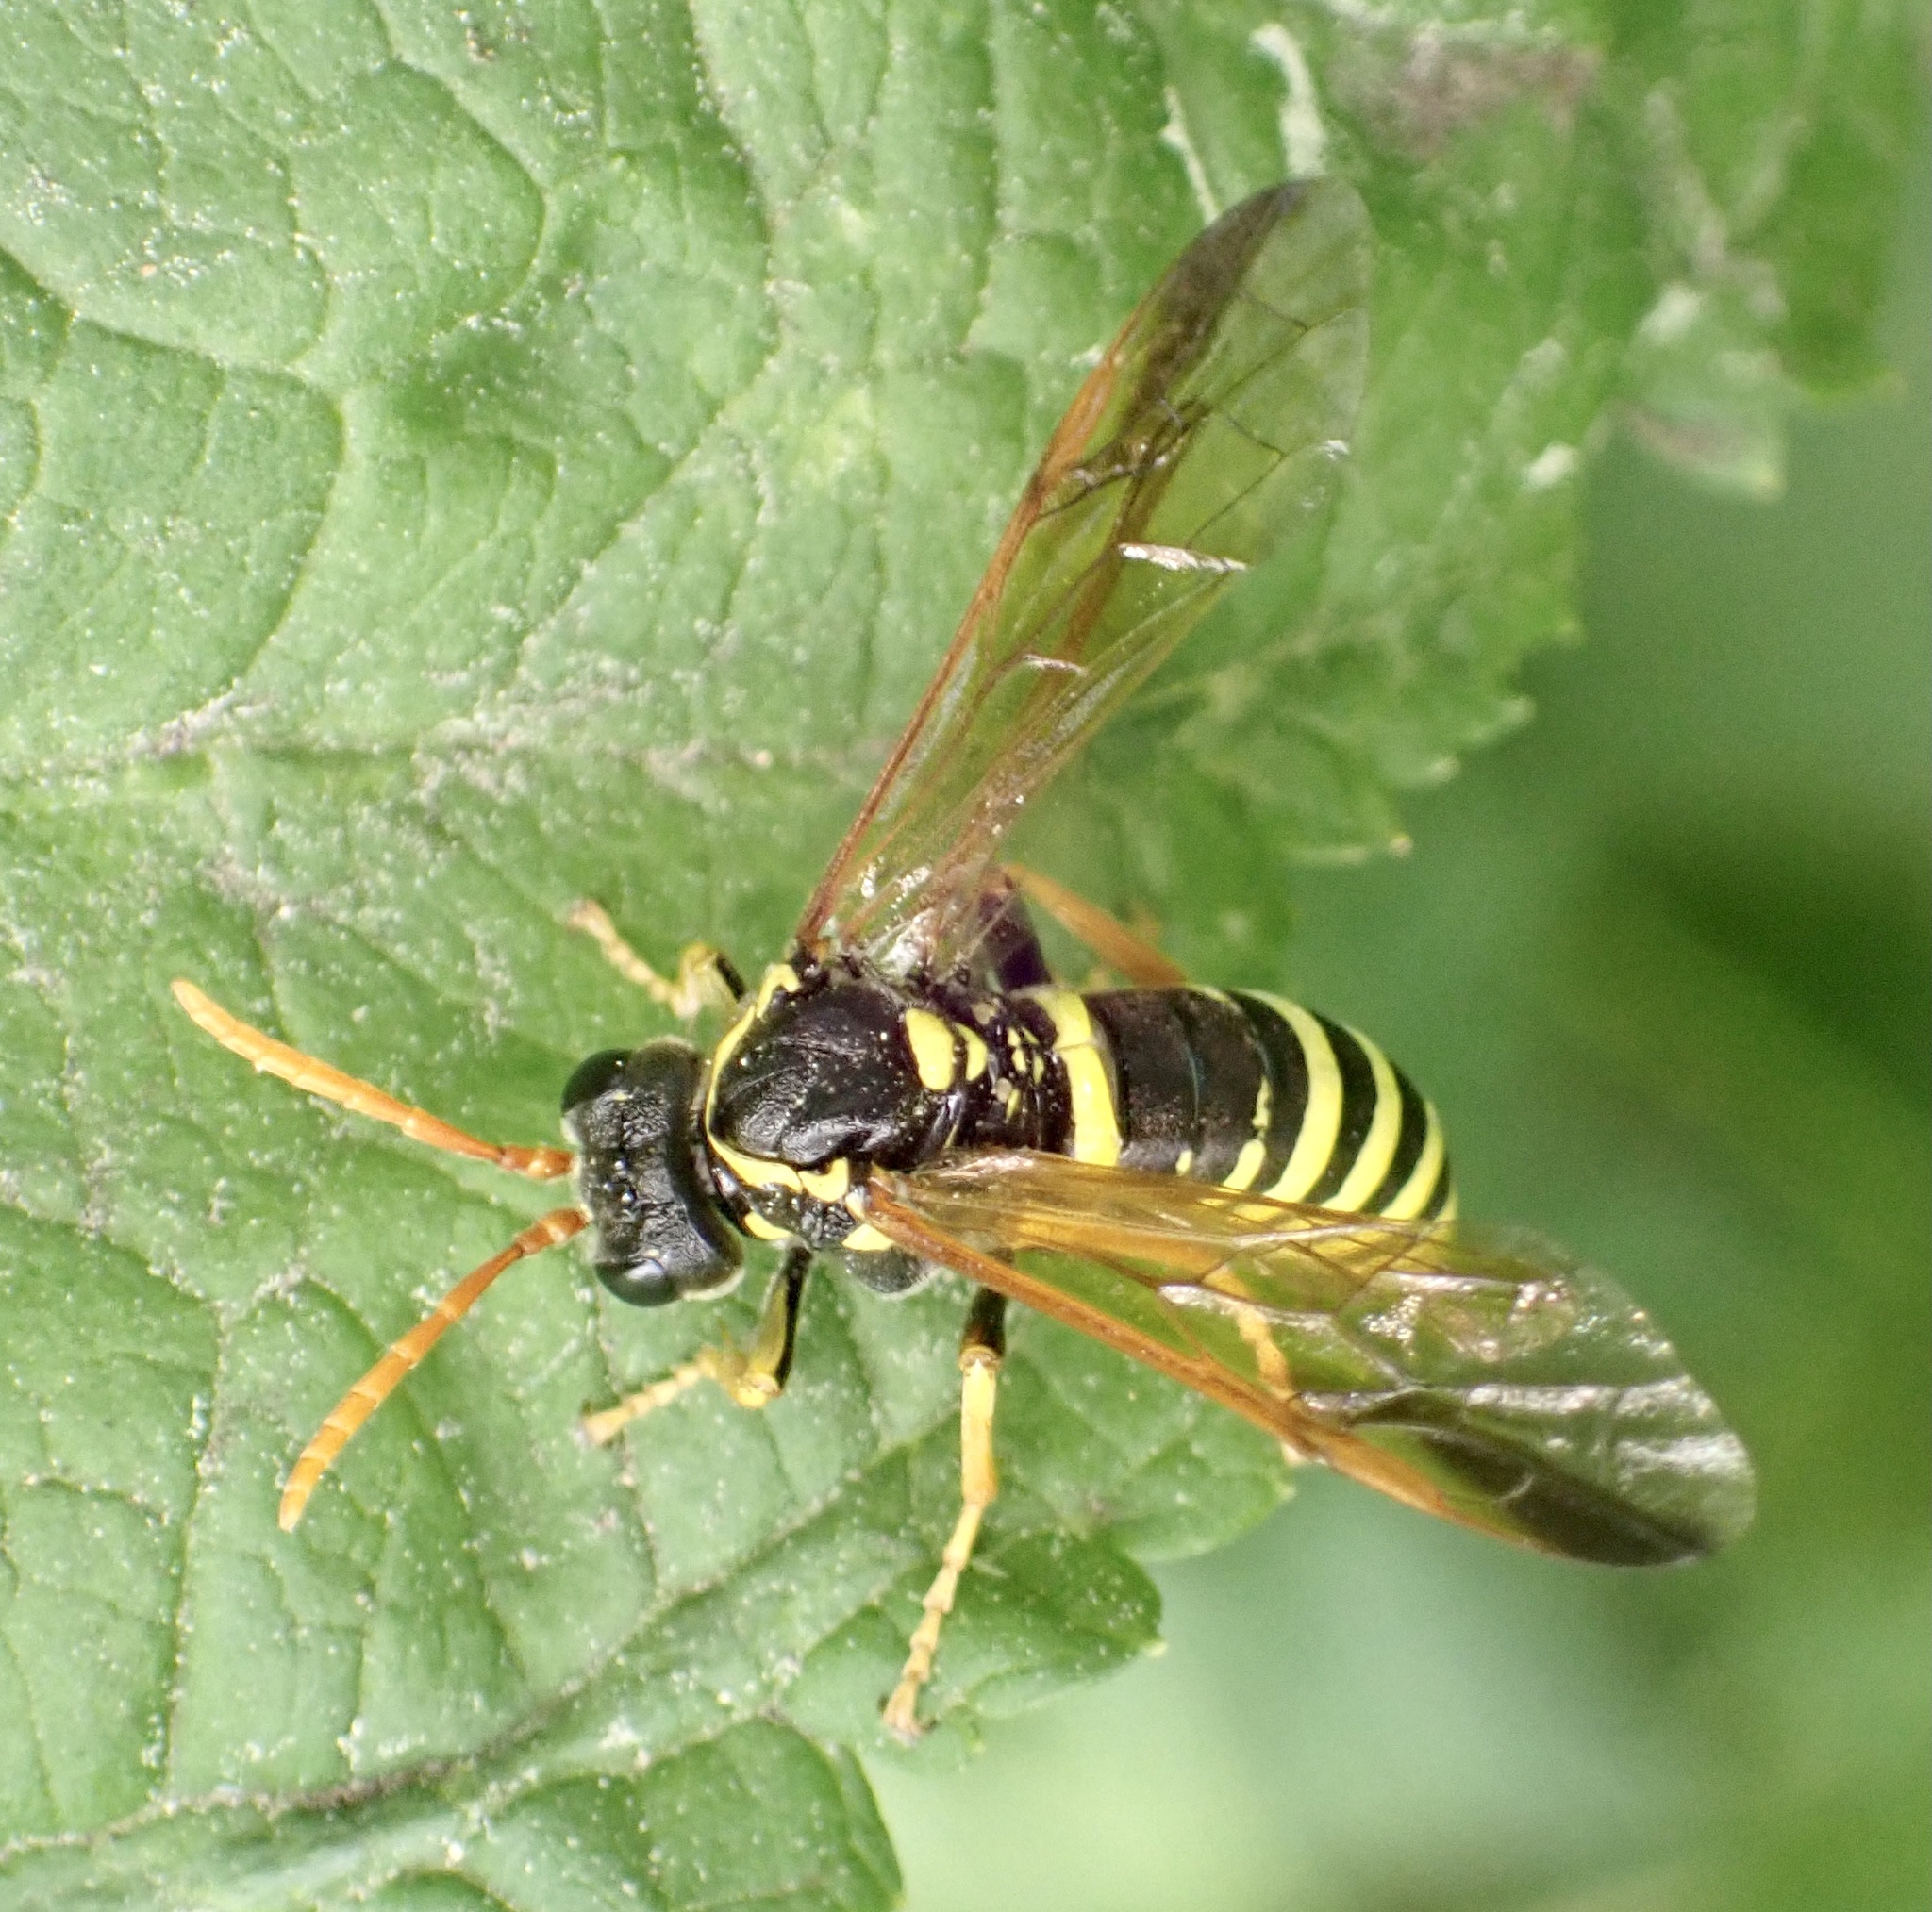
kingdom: Animalia
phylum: Arthropoda
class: Insecta
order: Hymenoptera
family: Tenthredinidae
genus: Tenthredo
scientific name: Tenthredo scrophulariae
